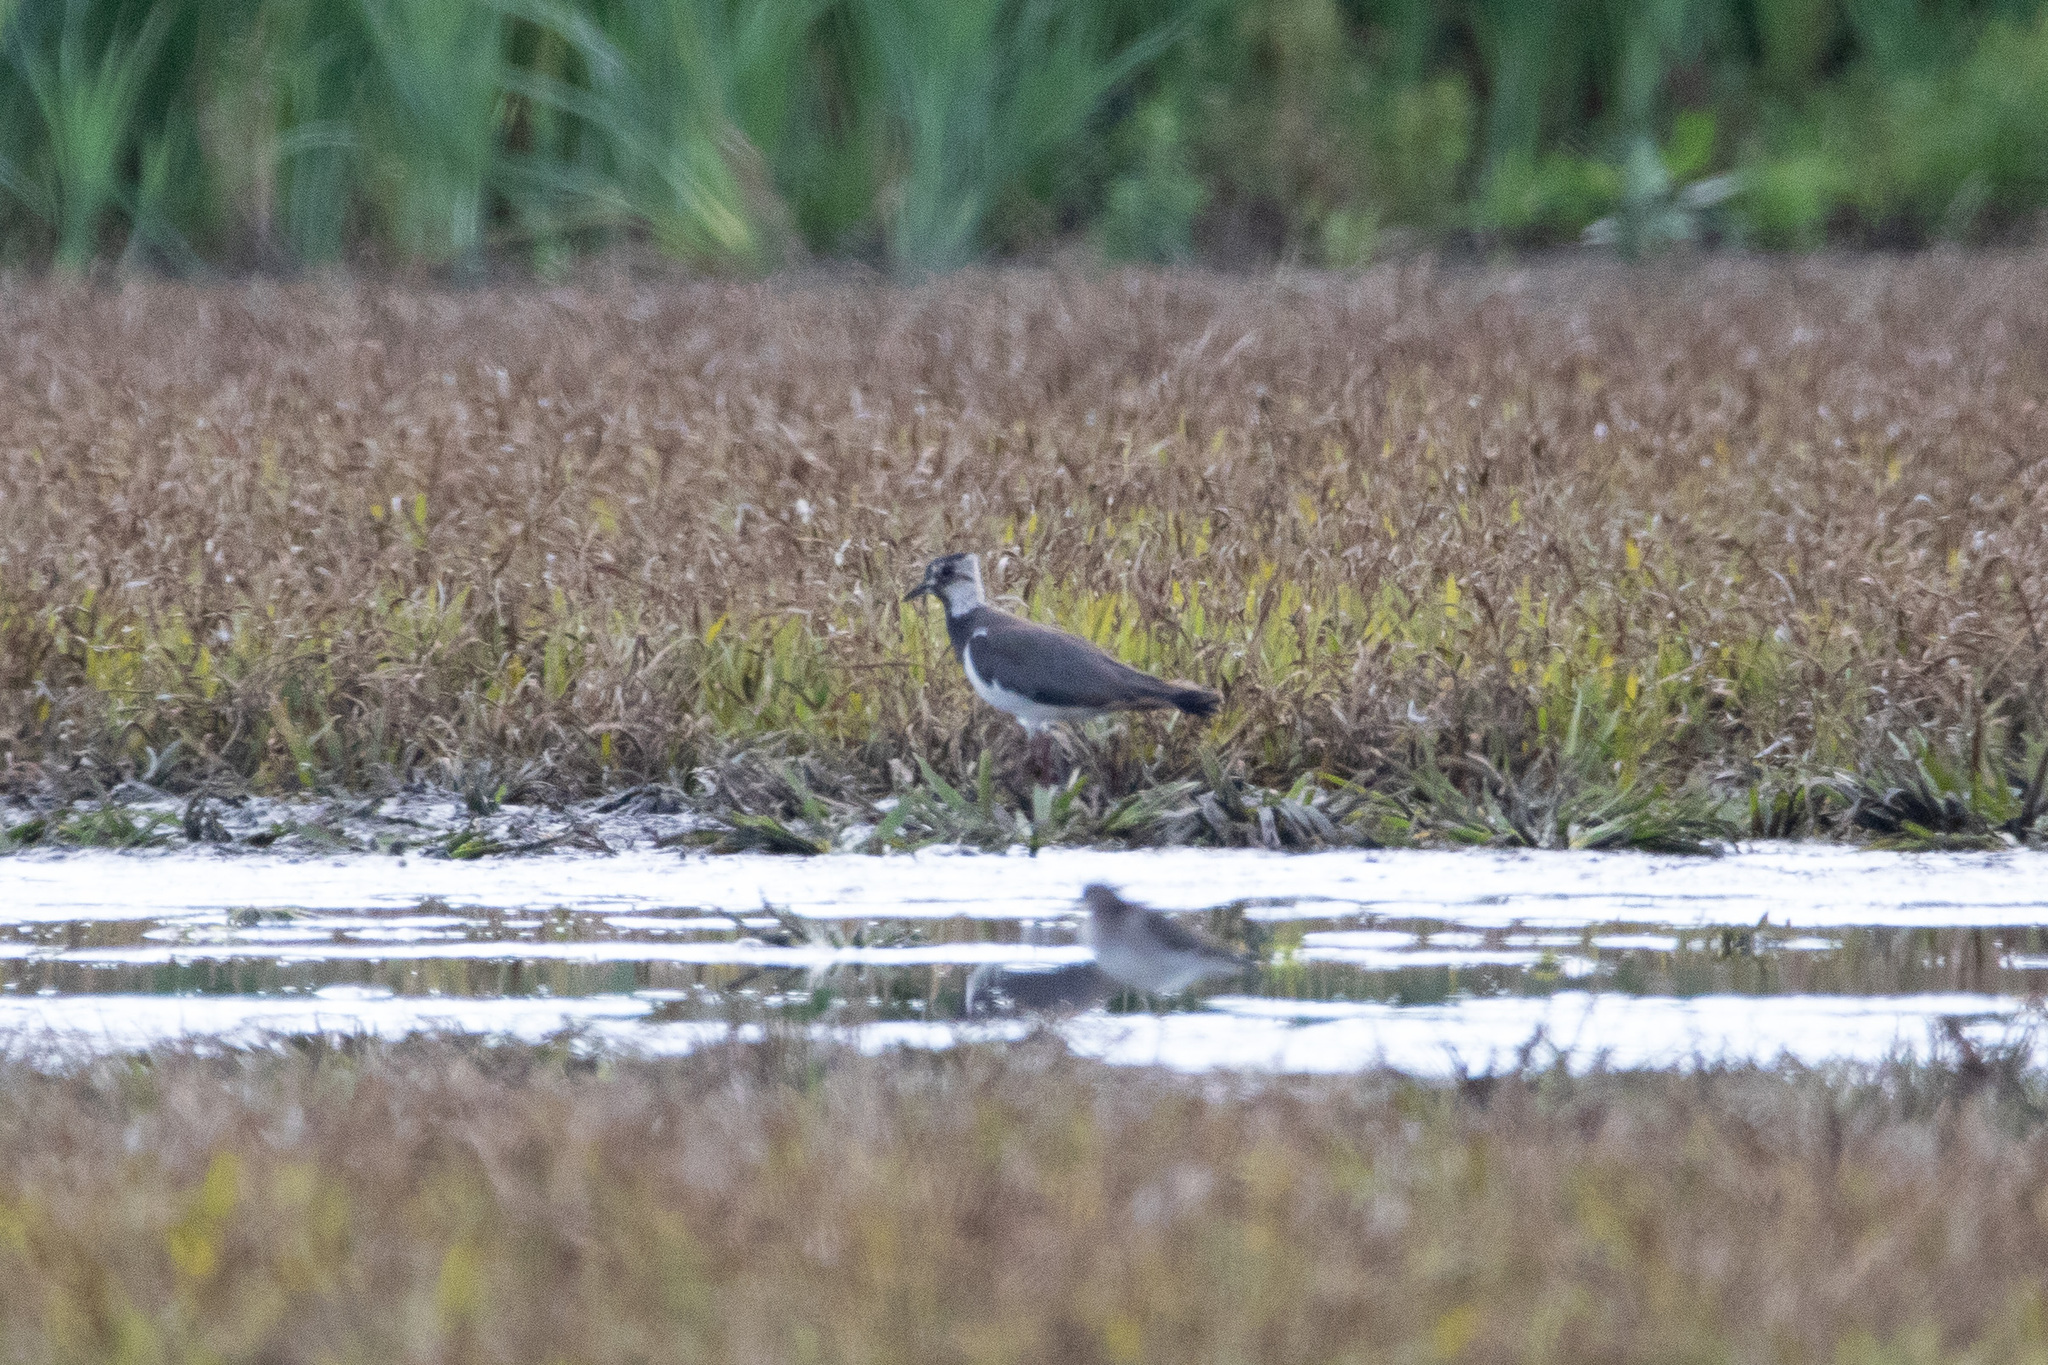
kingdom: Animalia
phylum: Chordata
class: Aves
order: Charadriiformes
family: Charadriidae
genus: Vanellus
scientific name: Vanellus vanellus
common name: Northern lapwing
